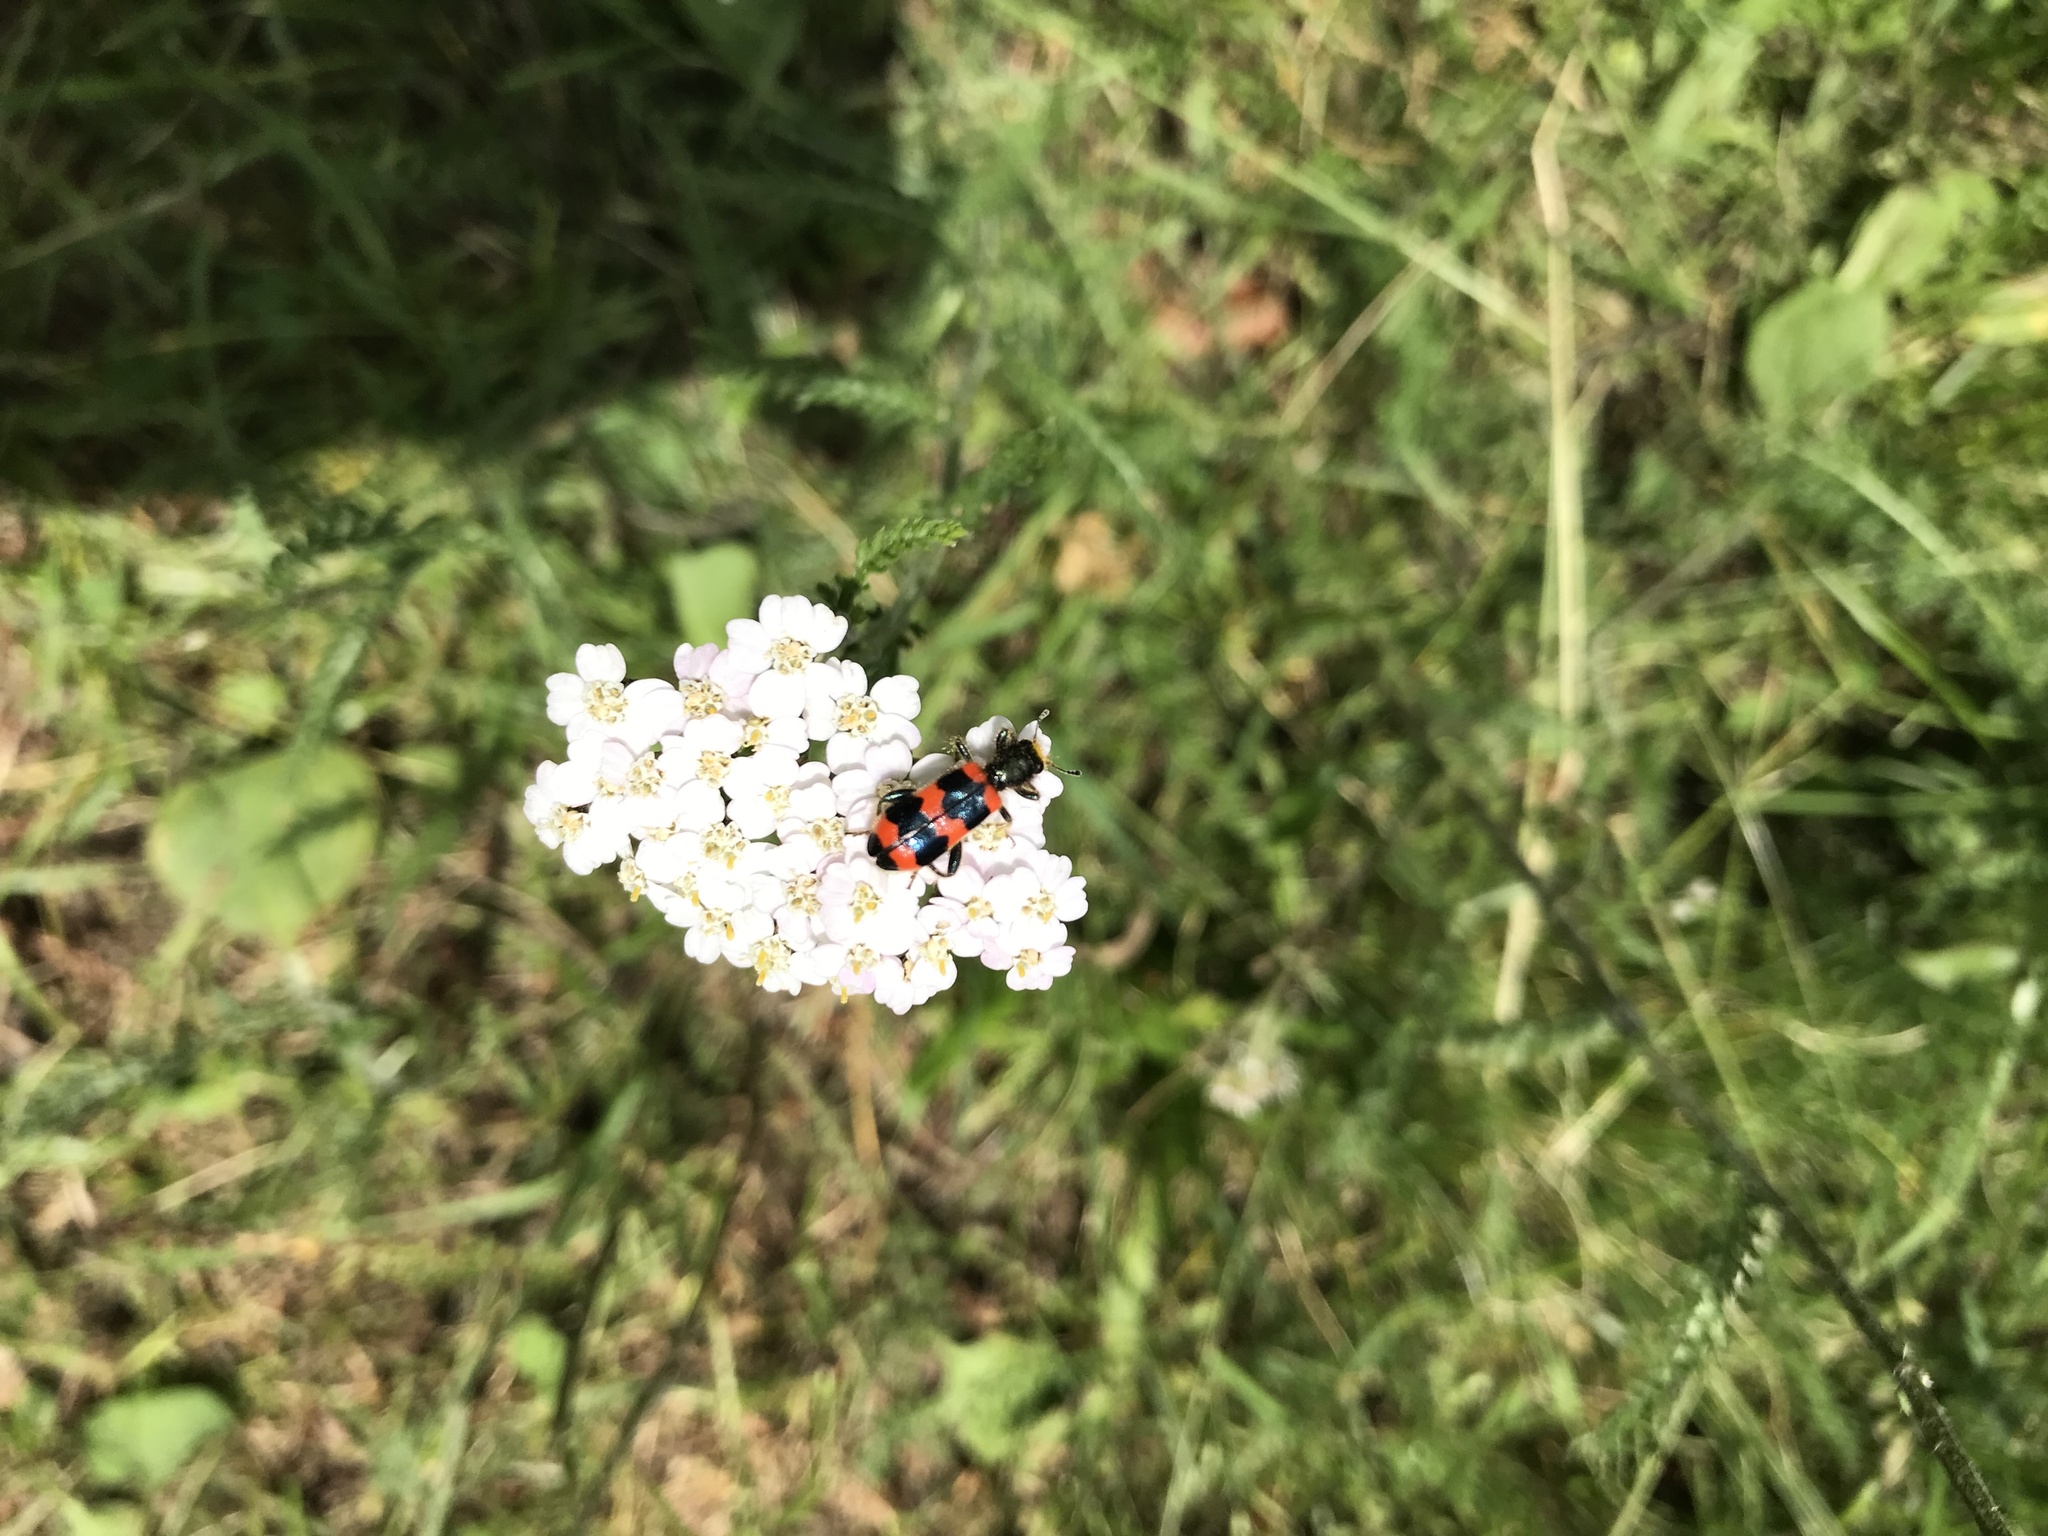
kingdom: Animalia
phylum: Arthropoda
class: Insecta
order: Coleoptera
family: Cleridae
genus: Trichodes
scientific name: Trichodes apiarius
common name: Bee-eating beetle
